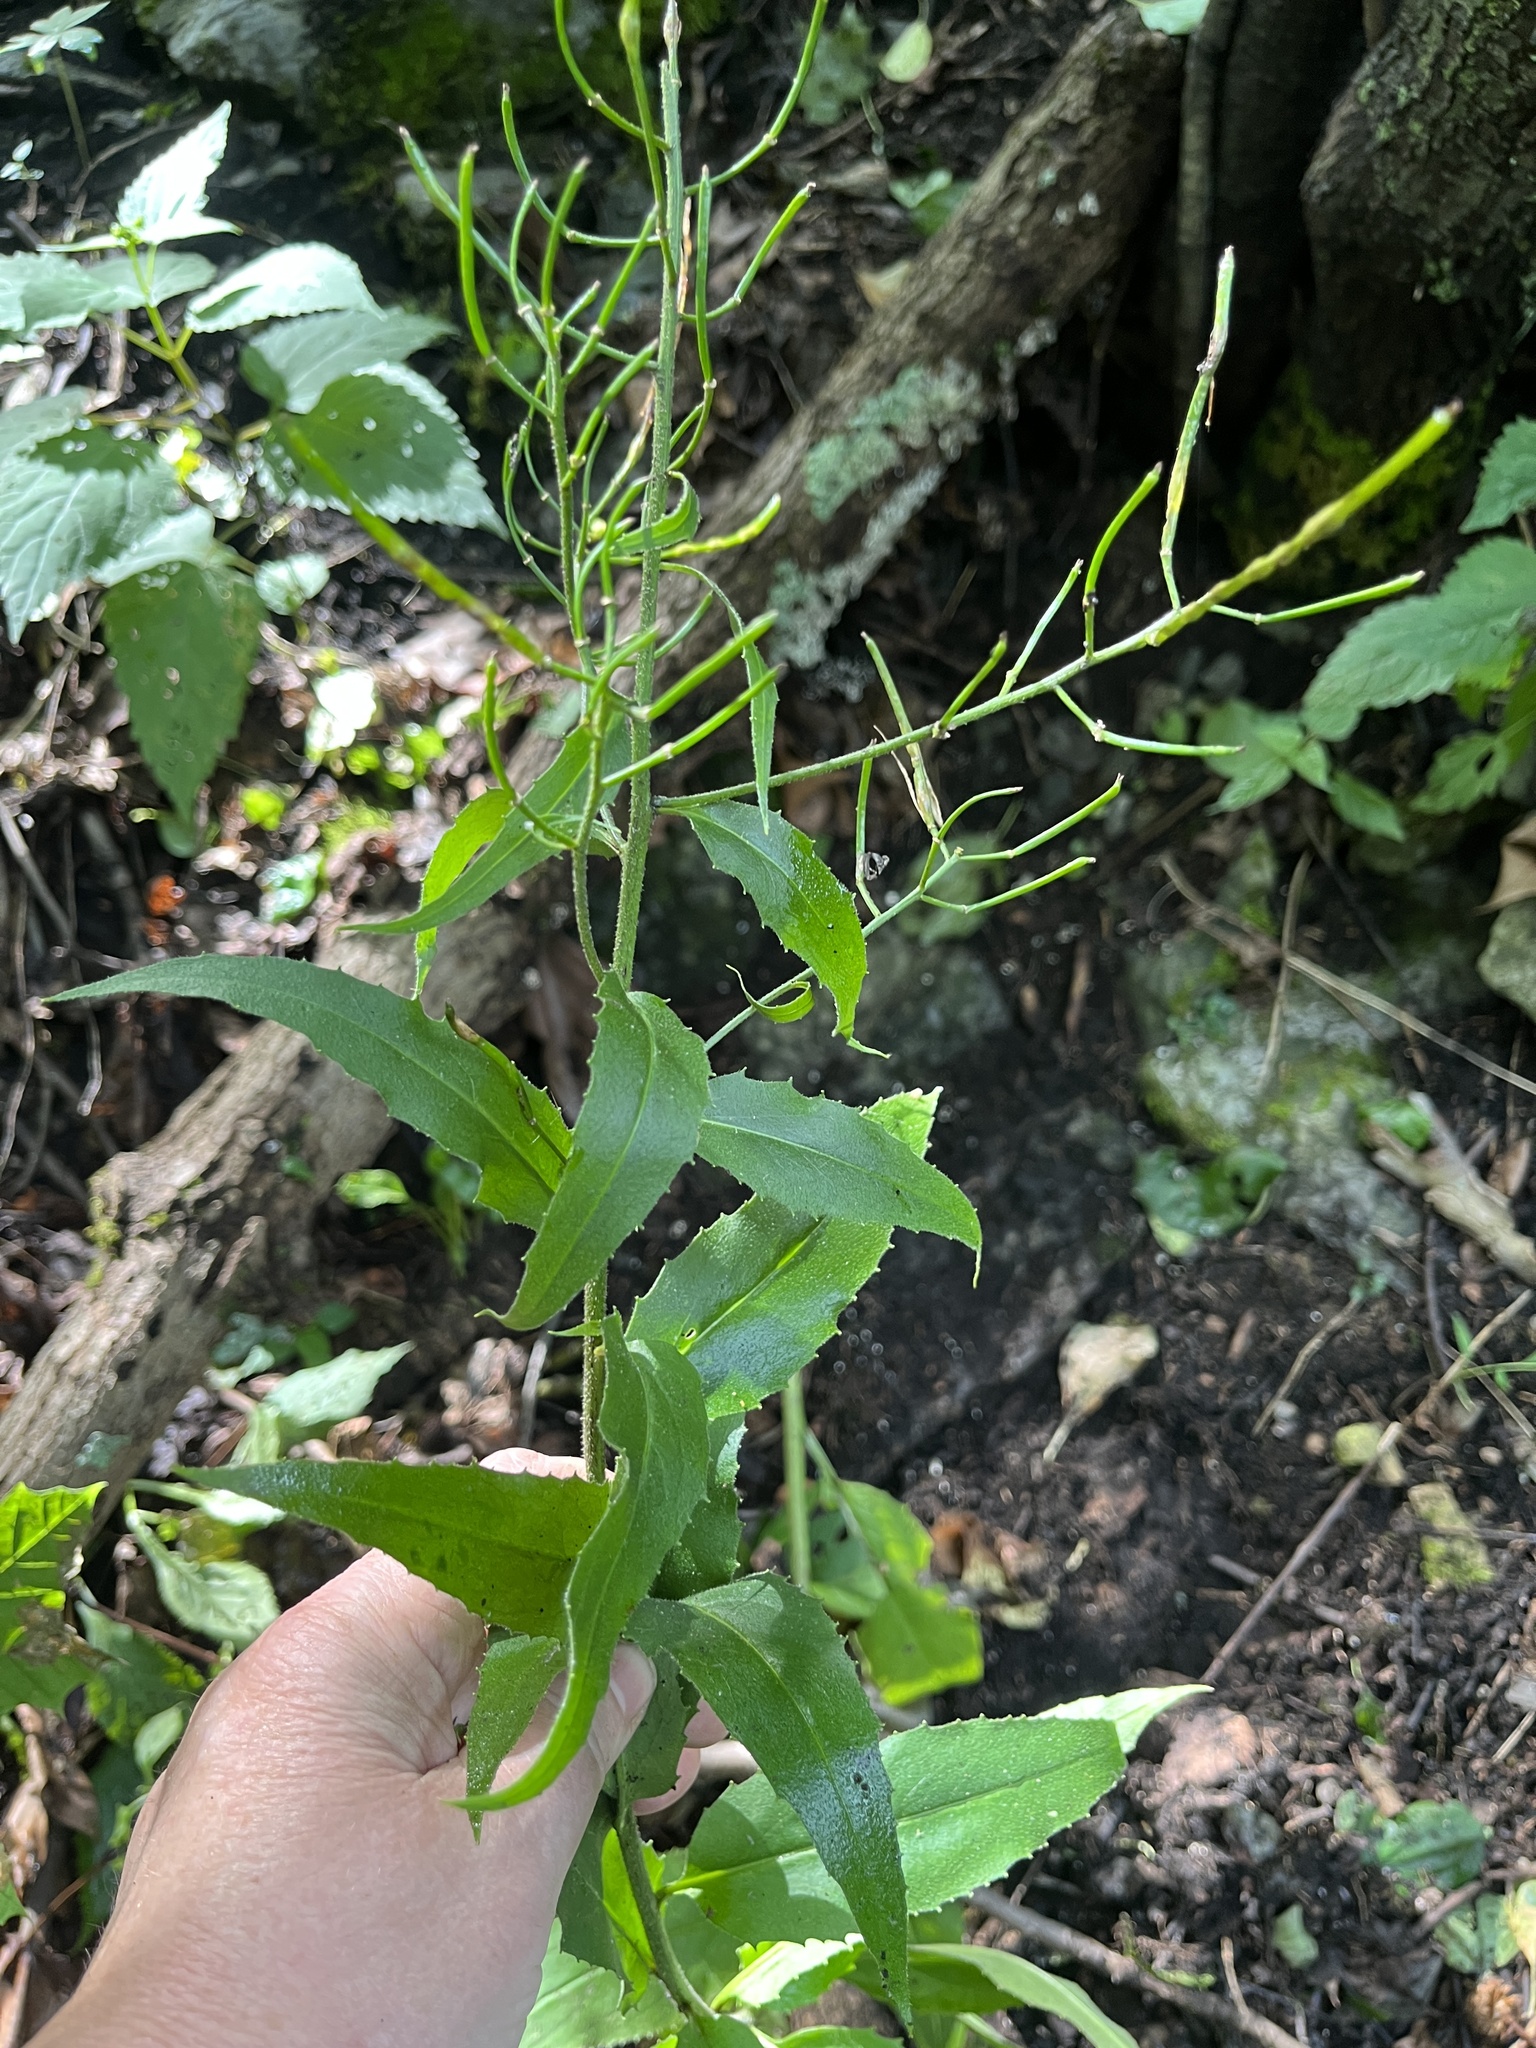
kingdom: Plantae
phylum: Tracheophyta
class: Magnoliopsida
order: Brassicales
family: Brassicaceae
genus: Hesperis
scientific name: Hesperis matronalis
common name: Dame's-violet
